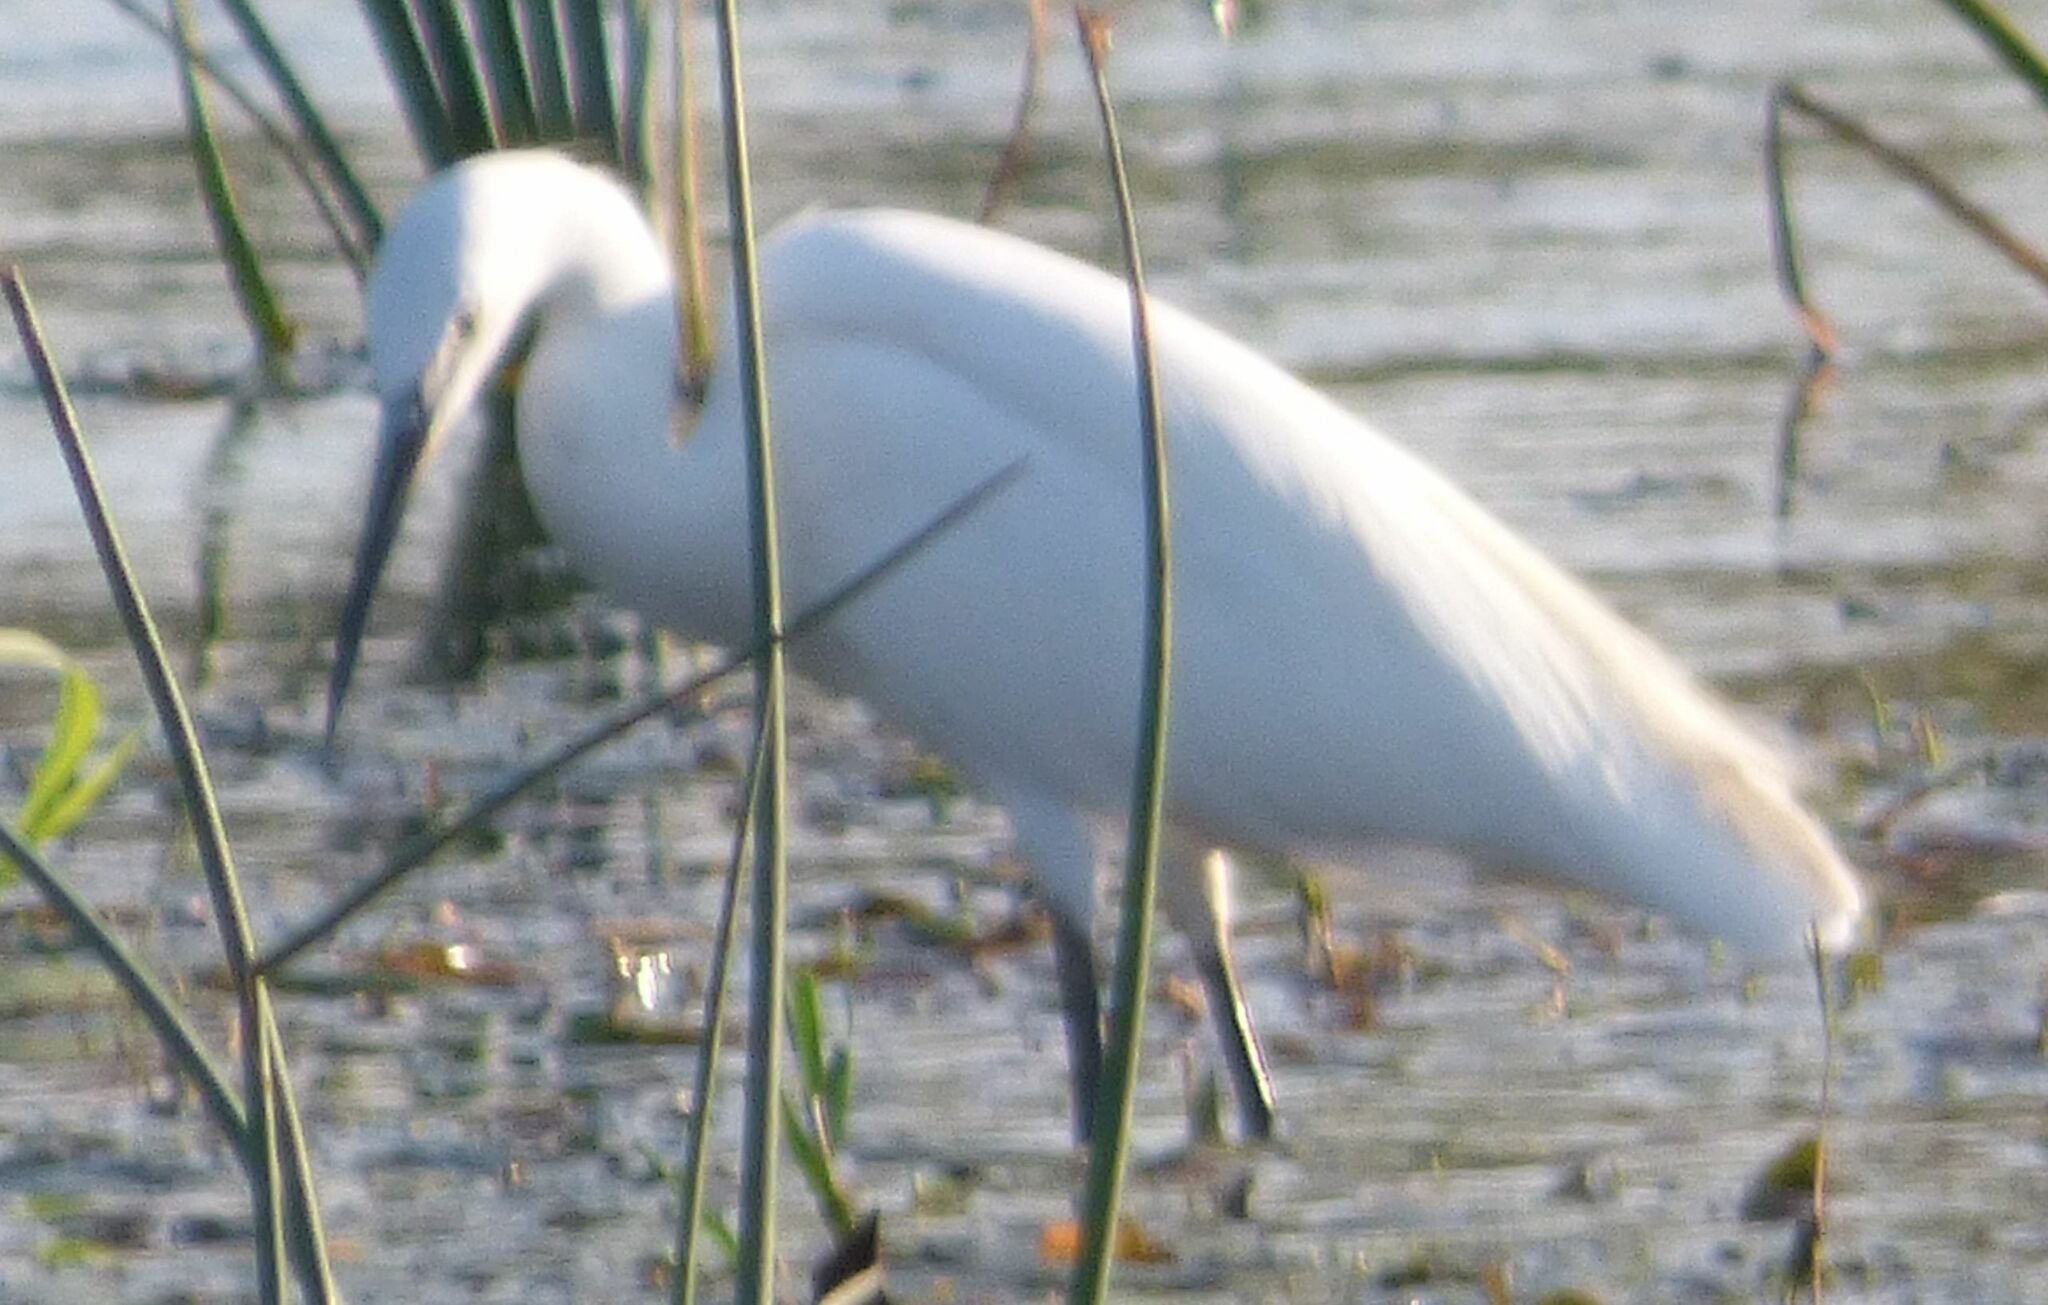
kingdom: Animalia
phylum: Chordata
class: Aves
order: Pelecaniformes
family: Ardeidae
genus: Egretta
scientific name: Egretta garzetta
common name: Little egret
